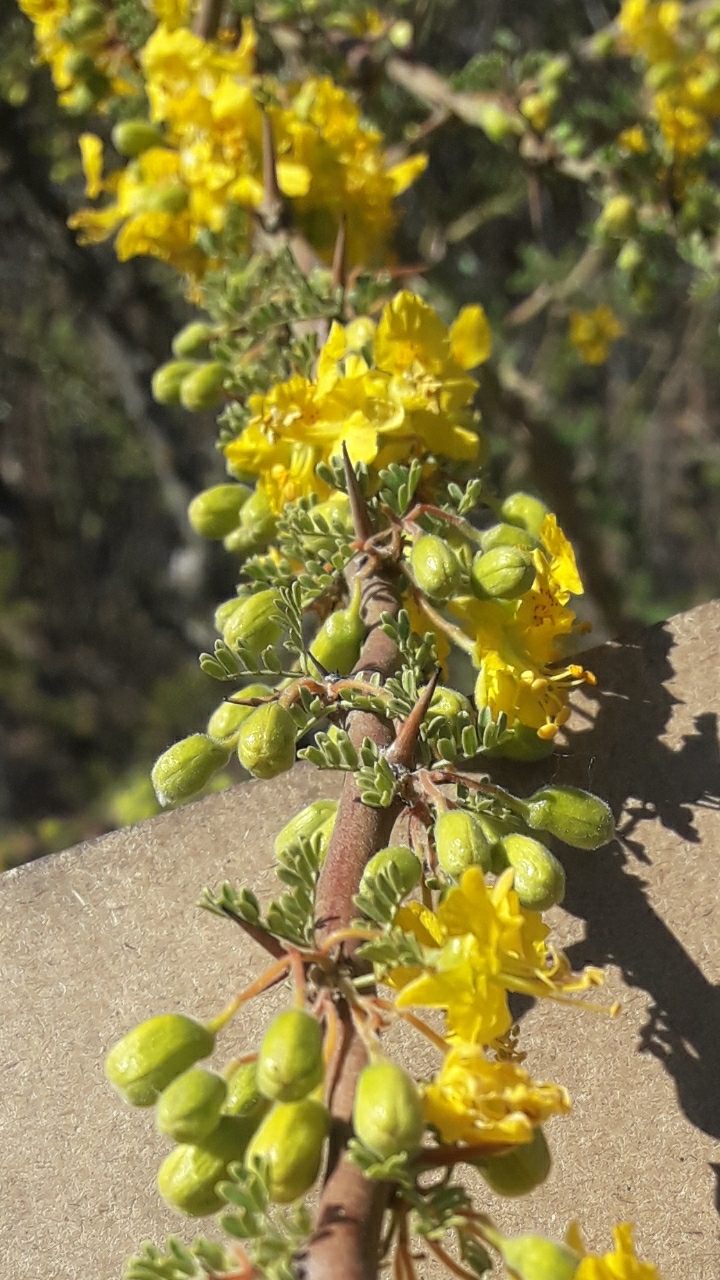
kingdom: Plantae
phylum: Tracheophyta
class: Magnoliopsida
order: Fabales
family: Fabaceae
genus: Parkinsonia
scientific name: Parkinsonia praecox
